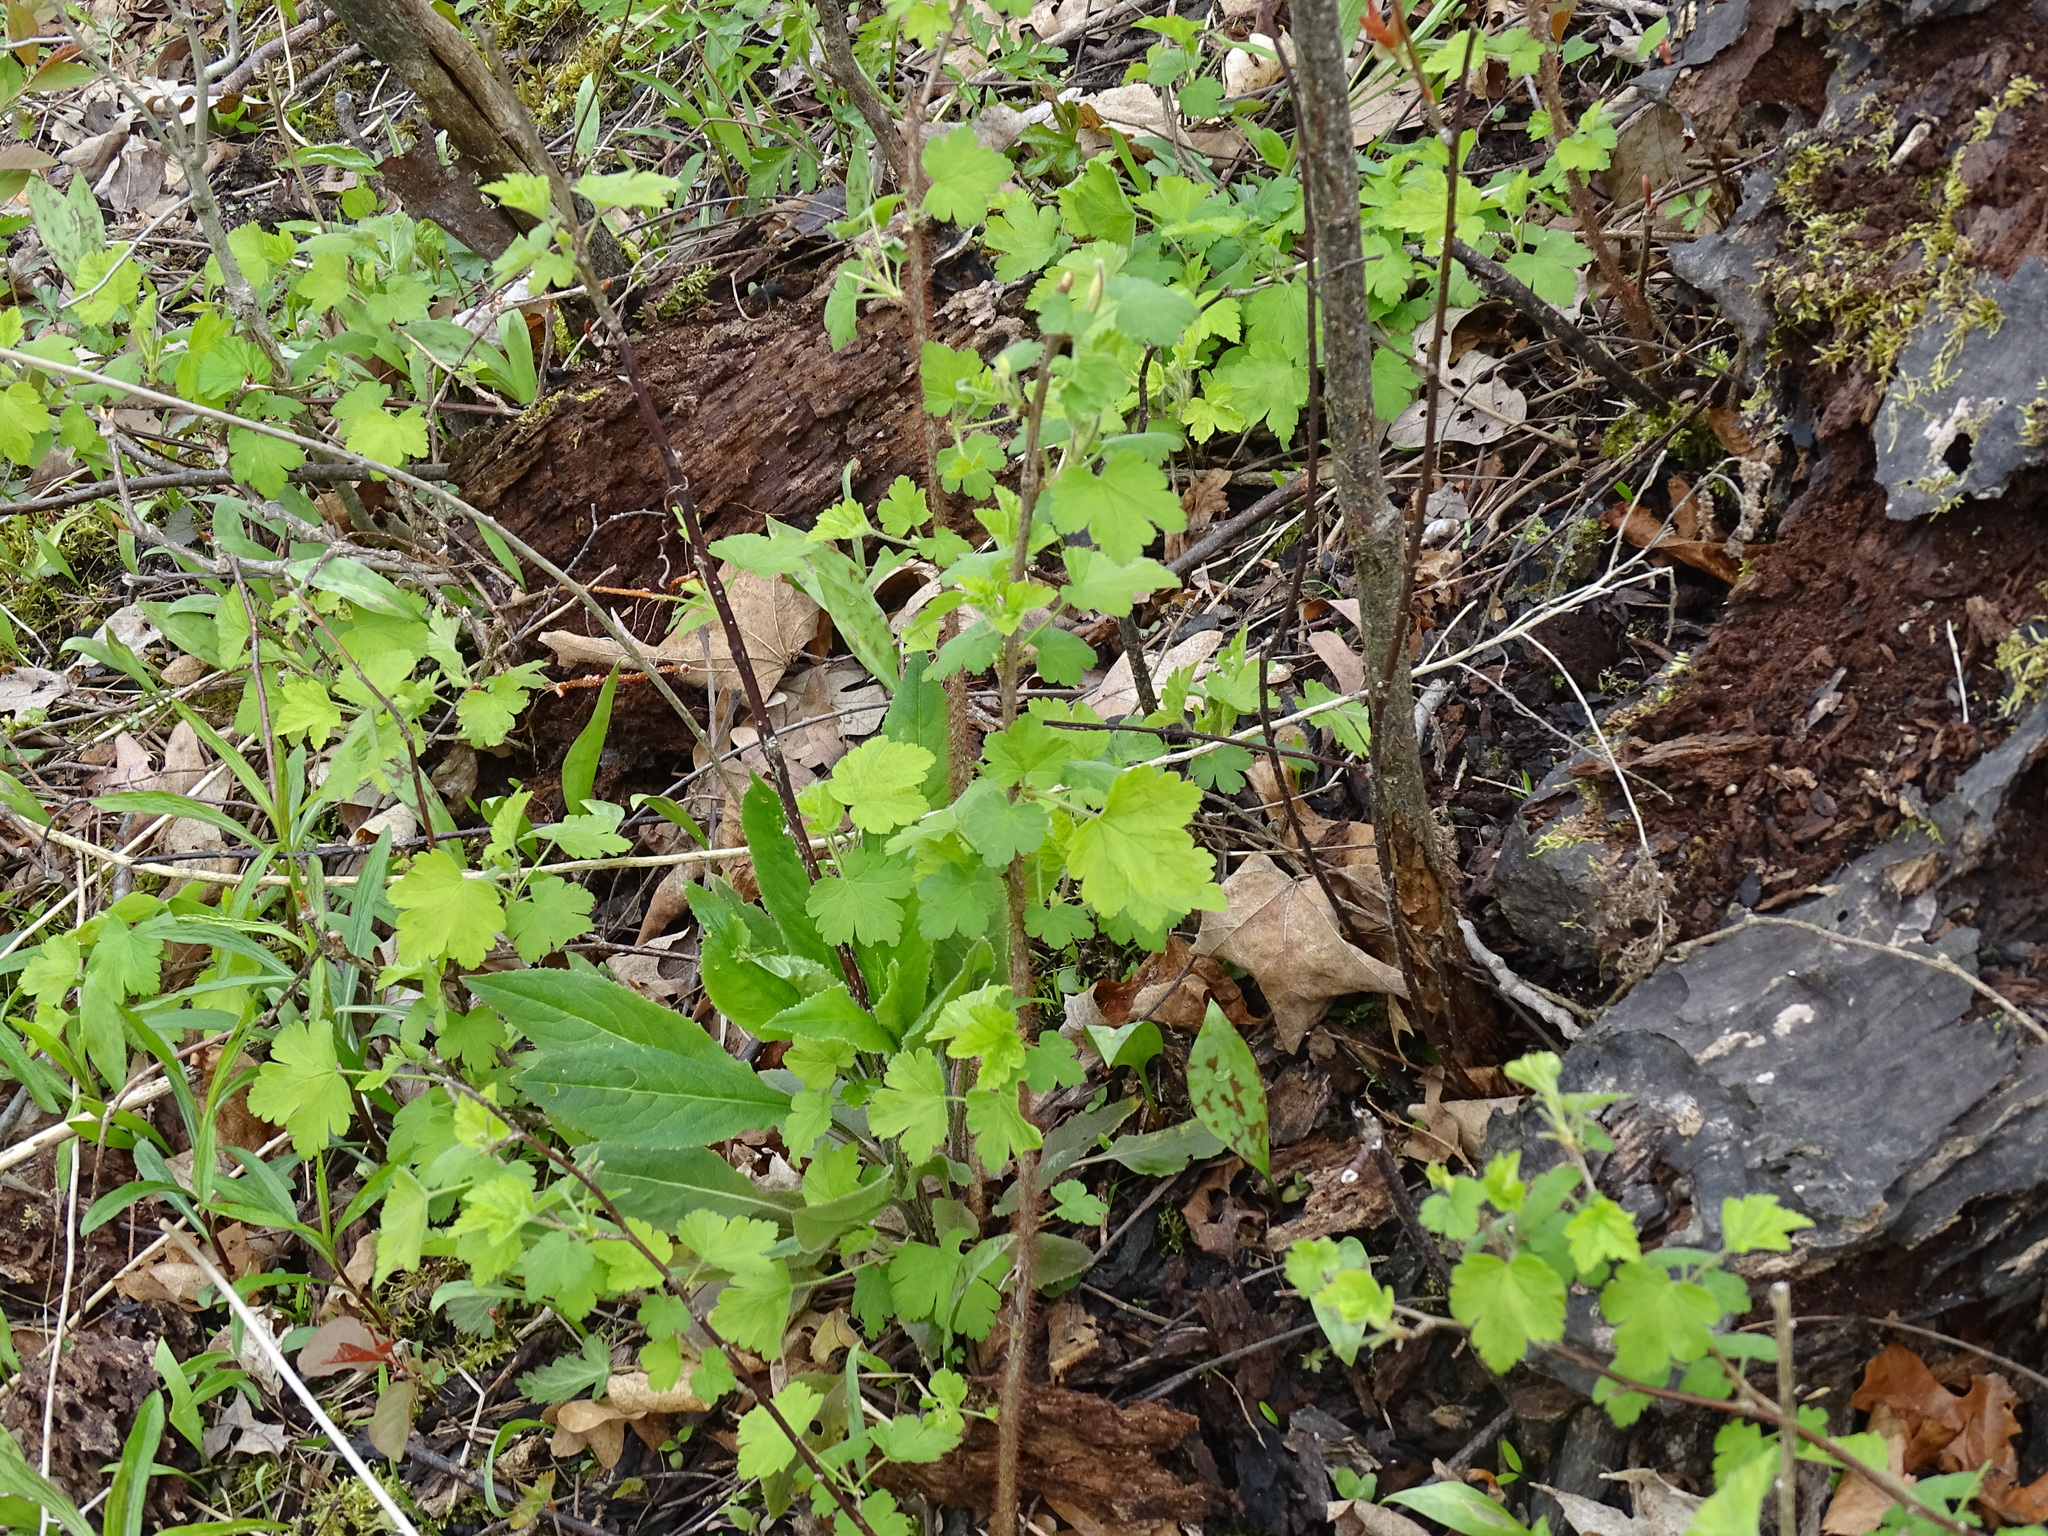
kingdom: Plantae
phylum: Tracheophyta
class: Magnoliopsida
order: Saxifragales
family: Grossulariaceae
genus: Ribes
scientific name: Ribes cynosbati
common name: American gooseberry
